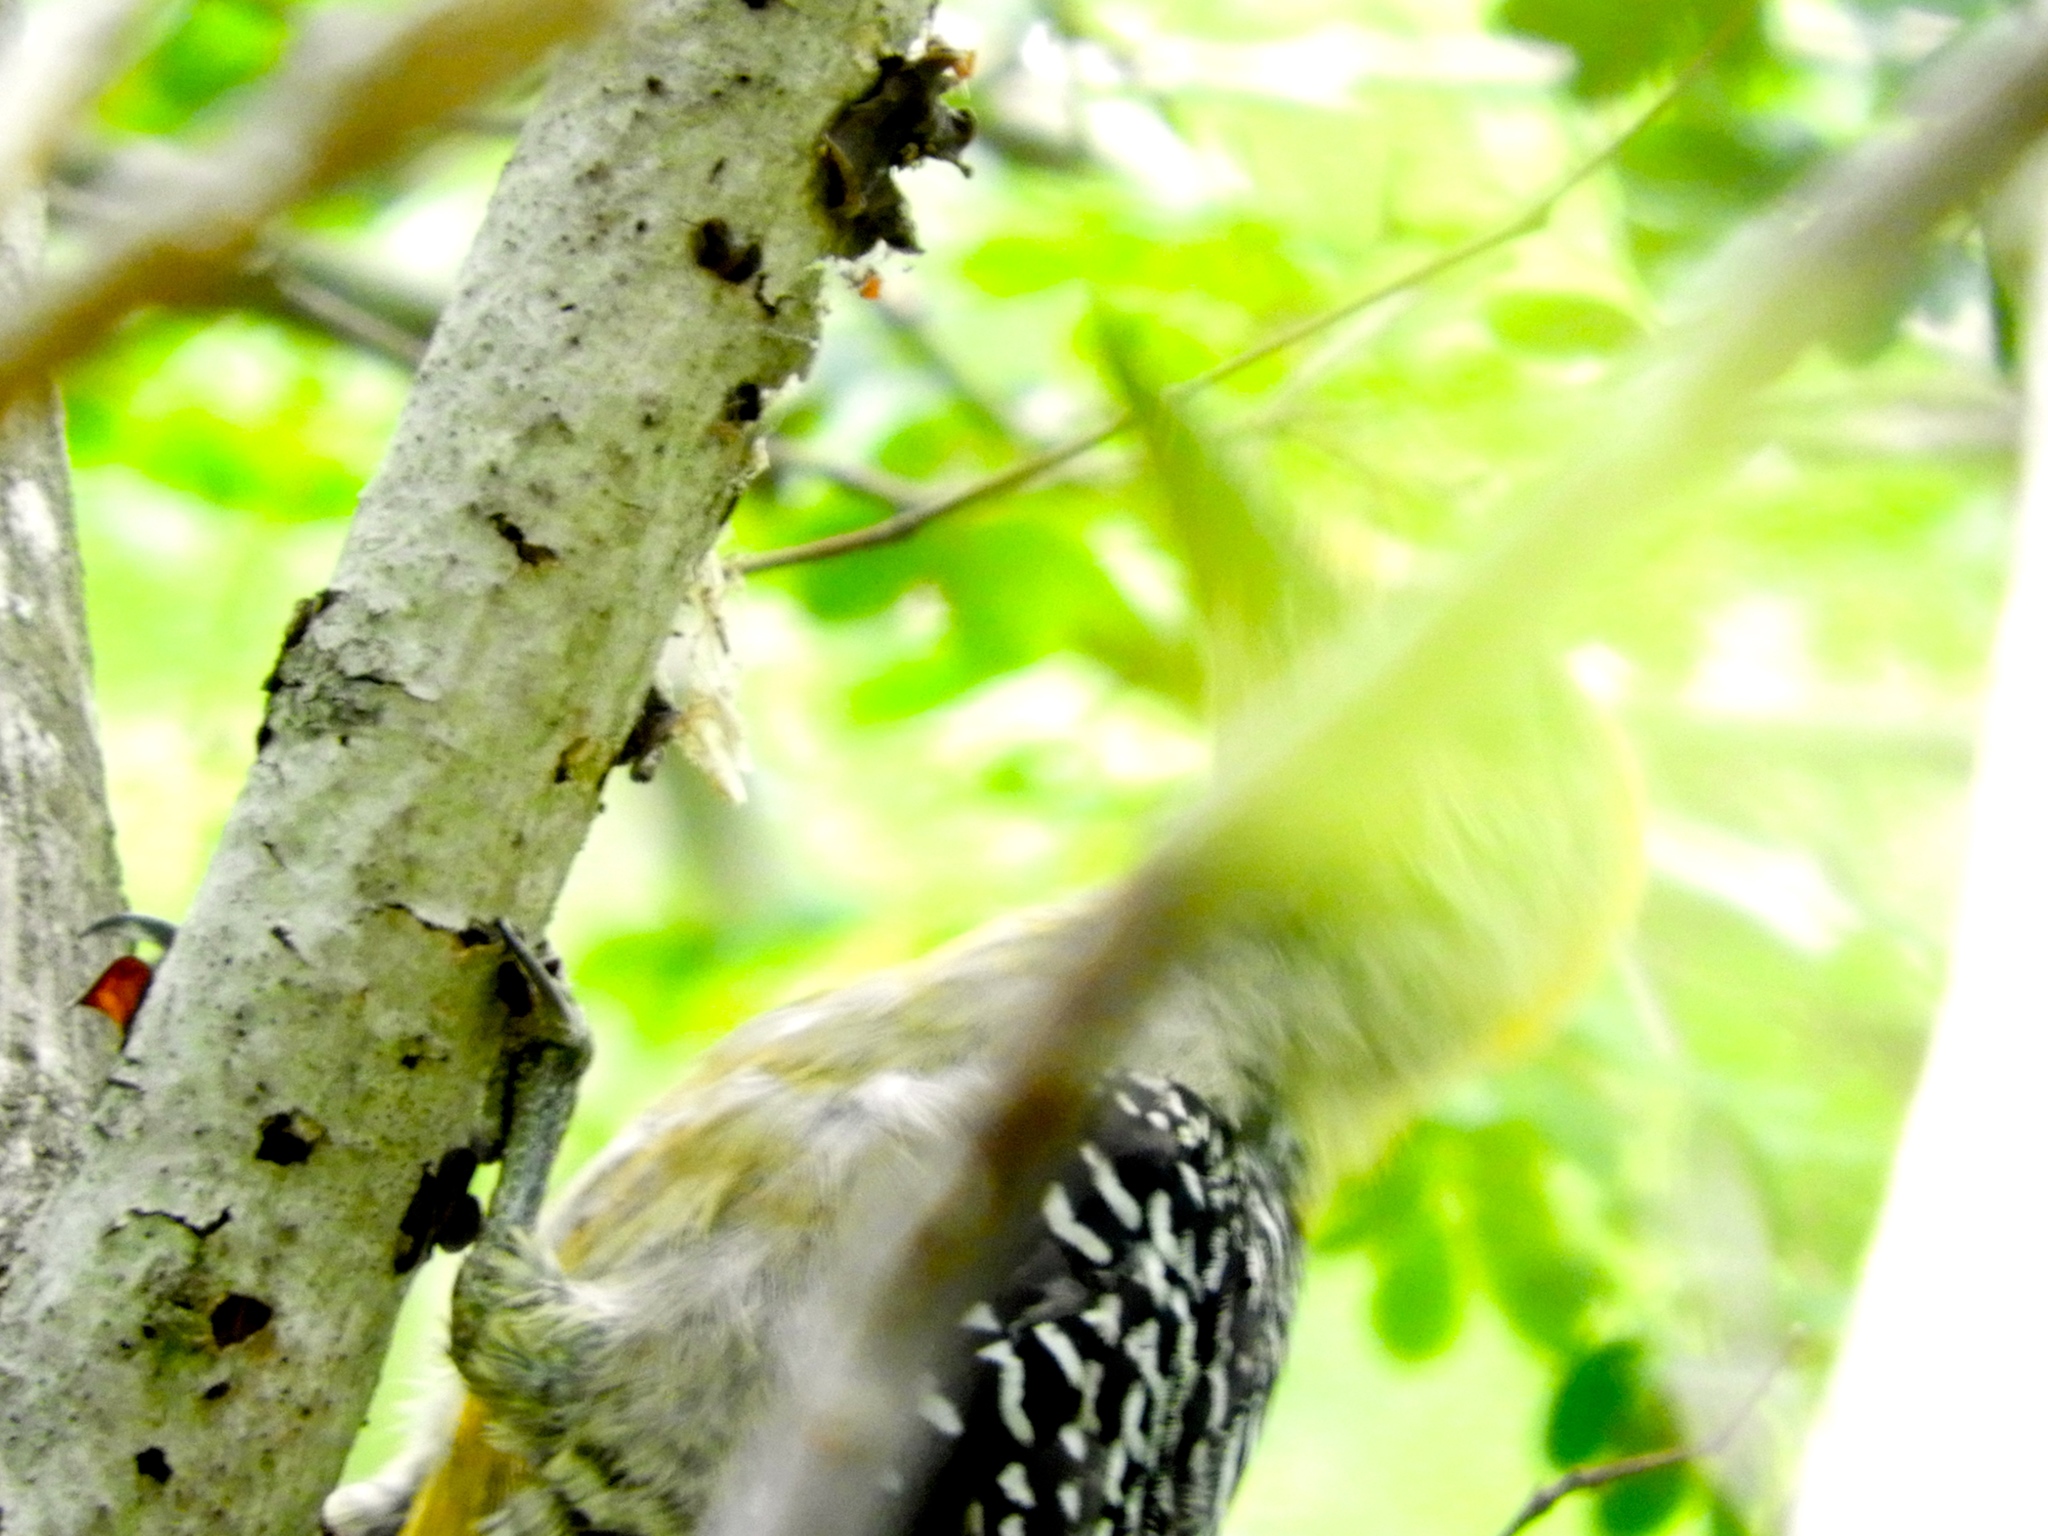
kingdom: Animalia
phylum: Chordata
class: Aves
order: Piciformes
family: Picidae
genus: Melanerpes
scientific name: Melanerpes chrysogenys
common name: Golden-cheeked woodpecker
